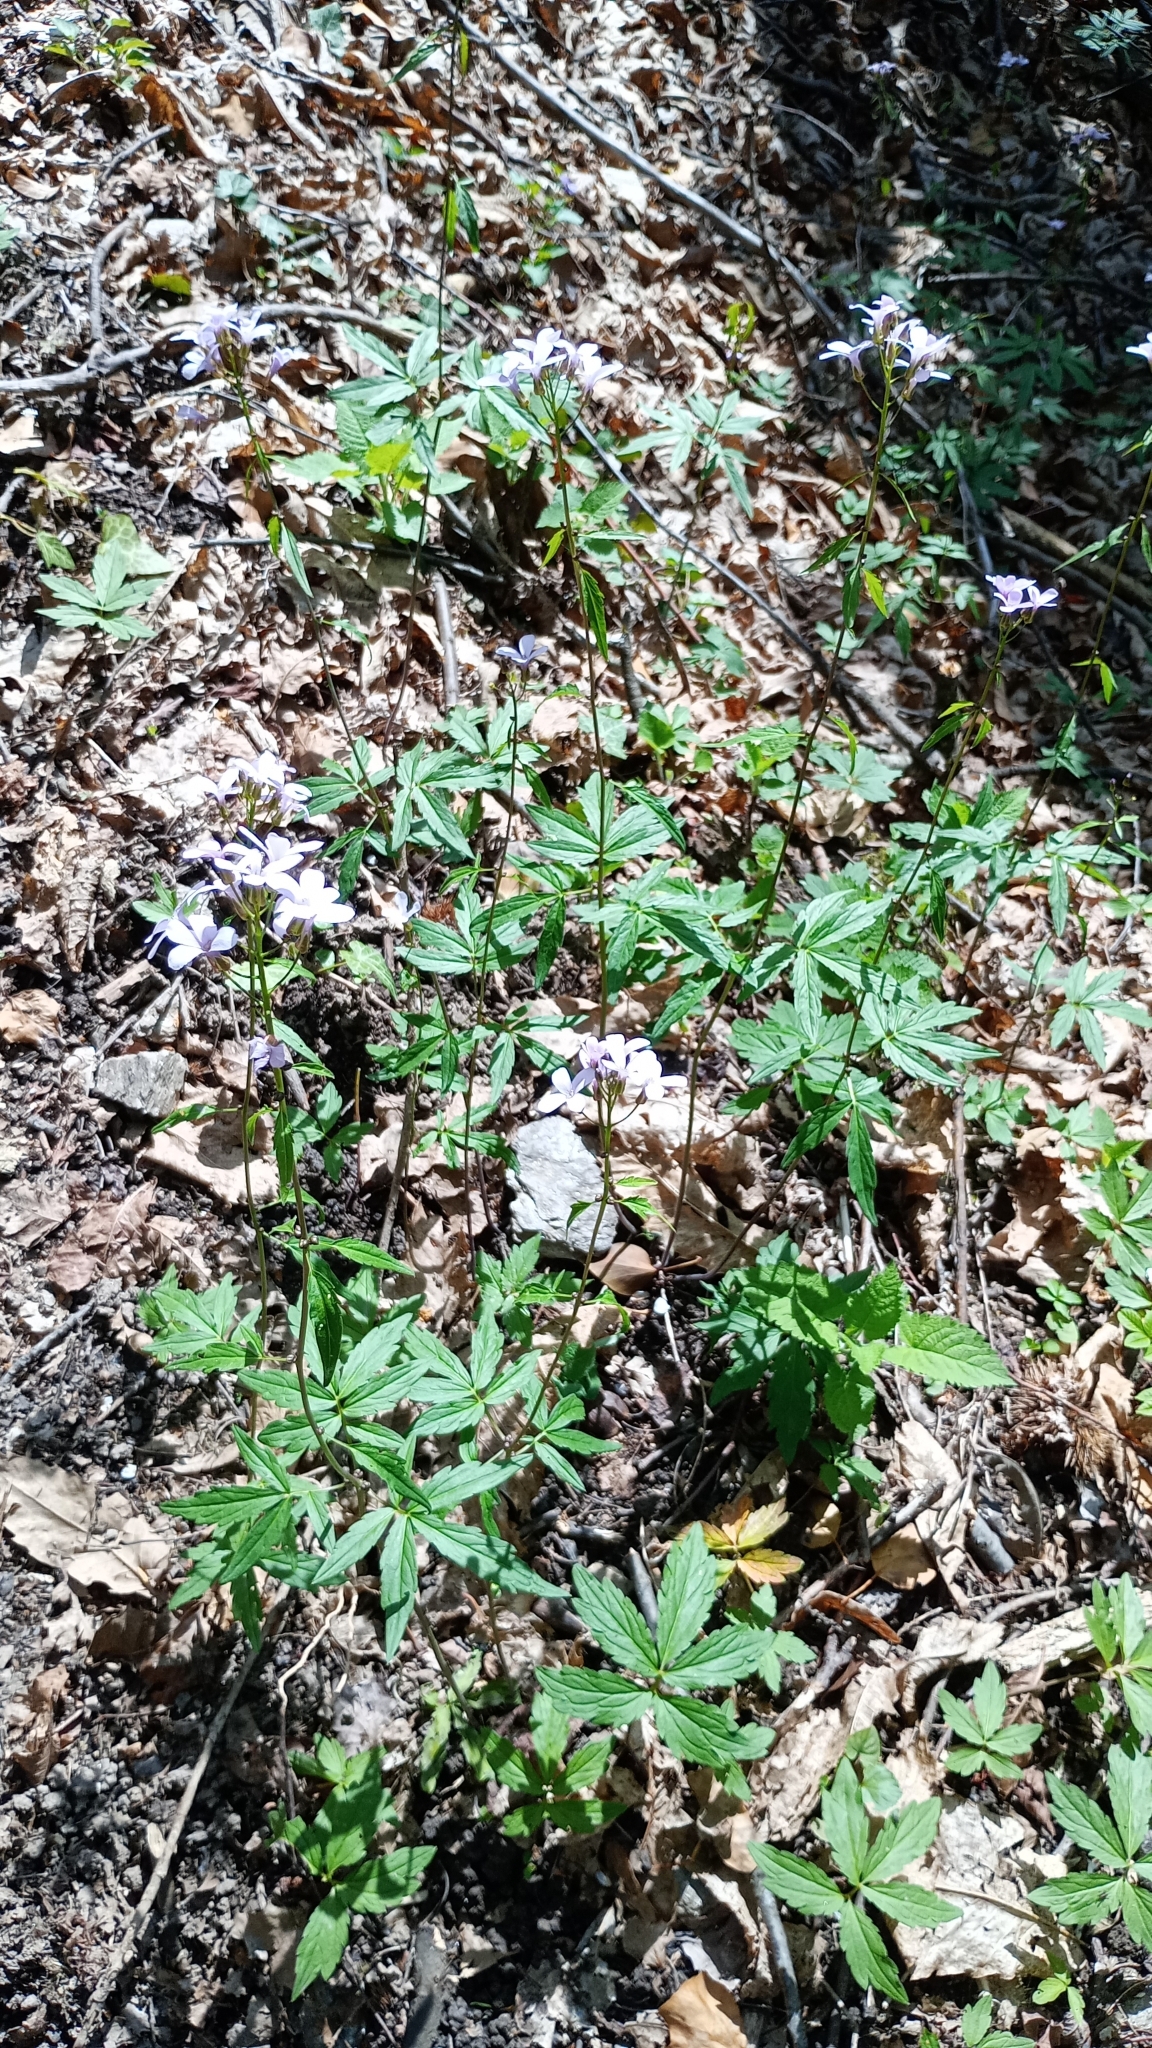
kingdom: Plantae
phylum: Tracheophyta
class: Magnoliopsida
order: Brassicales
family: Brassicaceae
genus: Cardamine
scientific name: Cardamine bulbifera
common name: Coralroot bittercress
